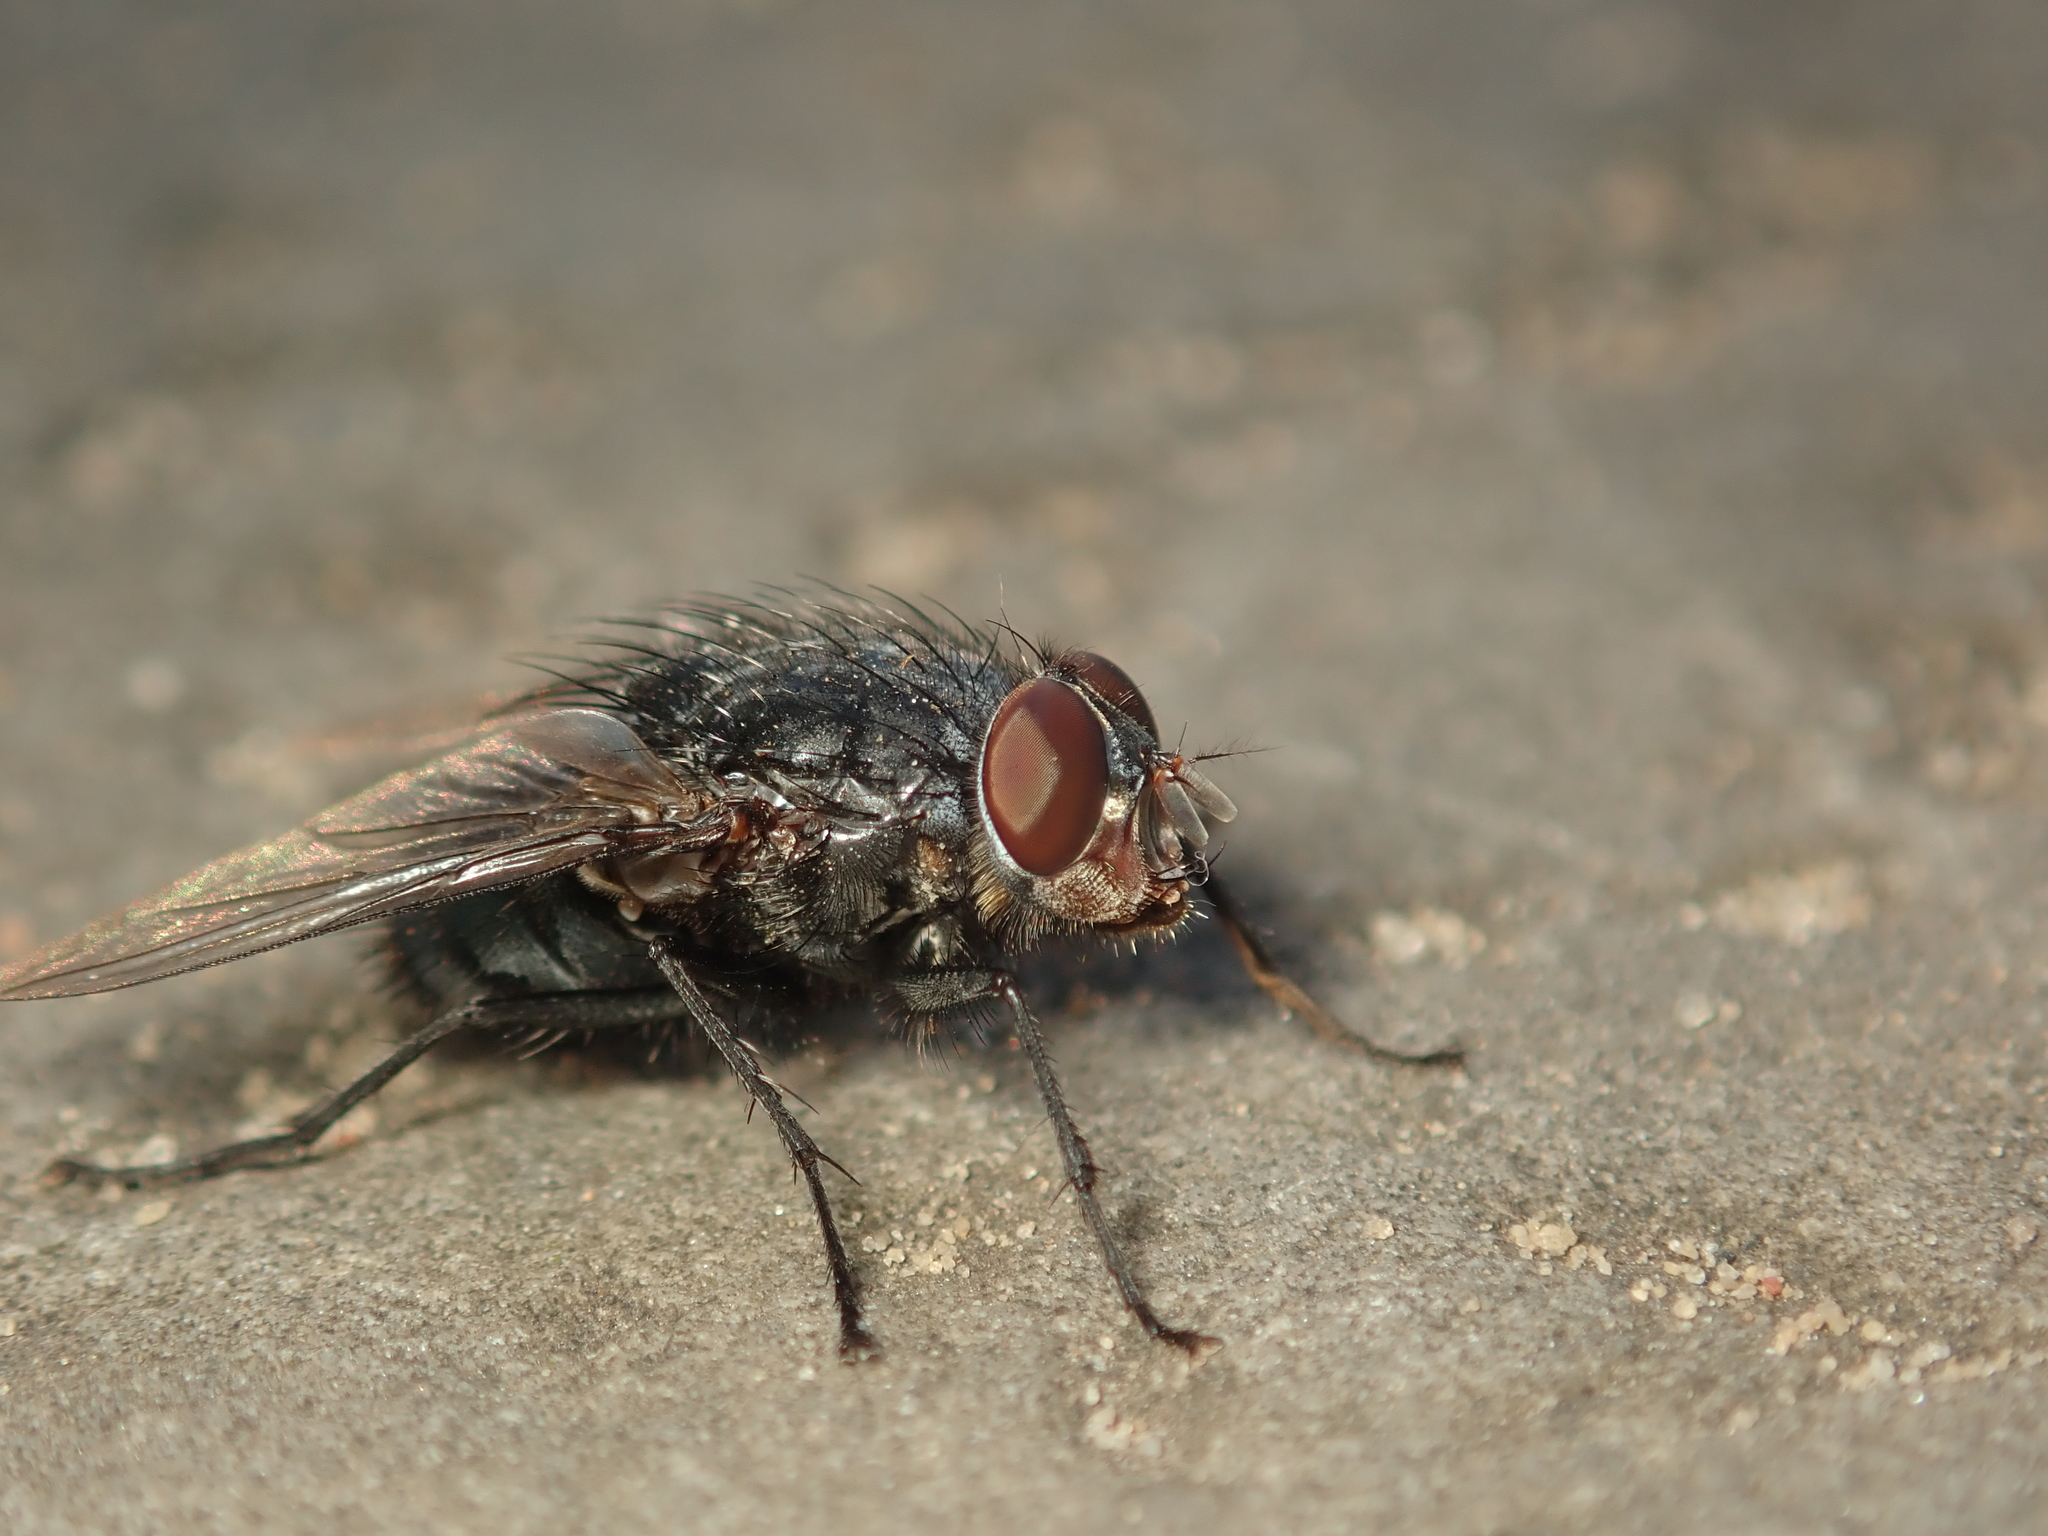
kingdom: Animalia
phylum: Arthropoda
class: Insecta
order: Diptera
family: Calliphoridae
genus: Calliphora
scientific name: Calliphora vicina
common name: Common blow flie
